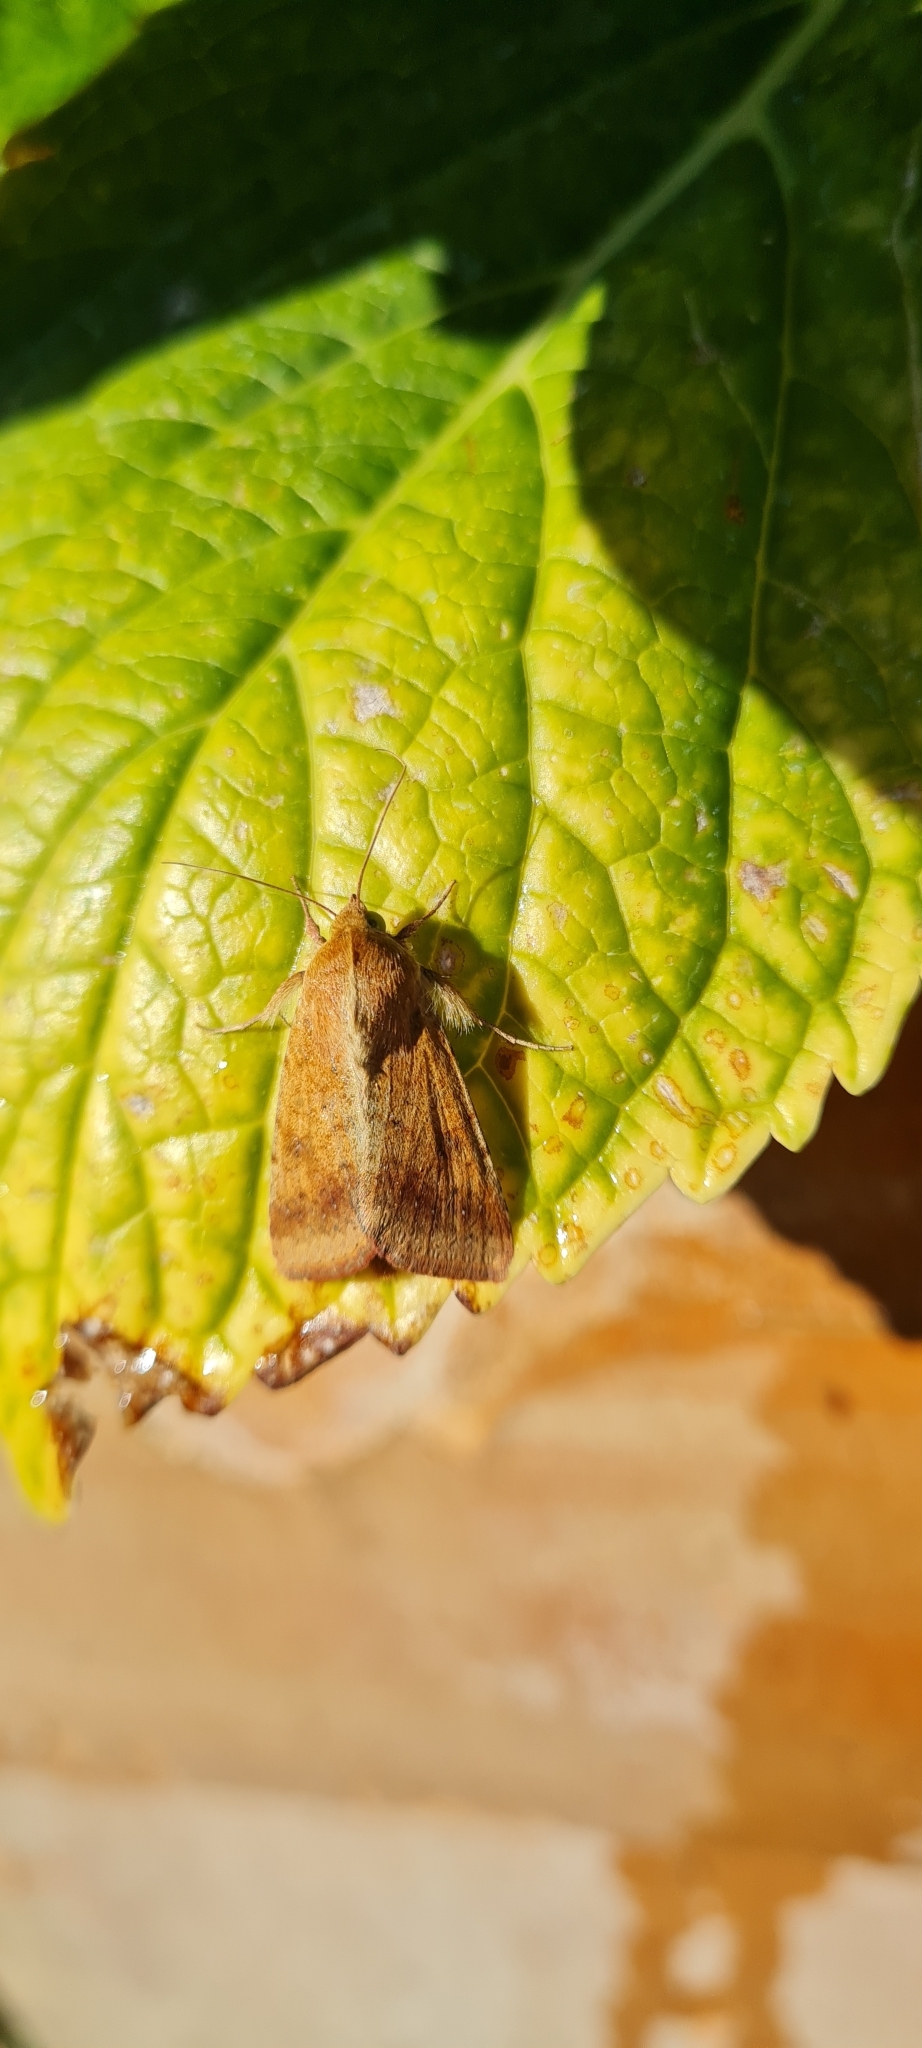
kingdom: Animalia
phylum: Arthropoda
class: Insecta
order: Lepidoptera
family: Noctuidae
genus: Helicoverpa
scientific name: Helicoverpa armigera
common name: Cotton bollworm
